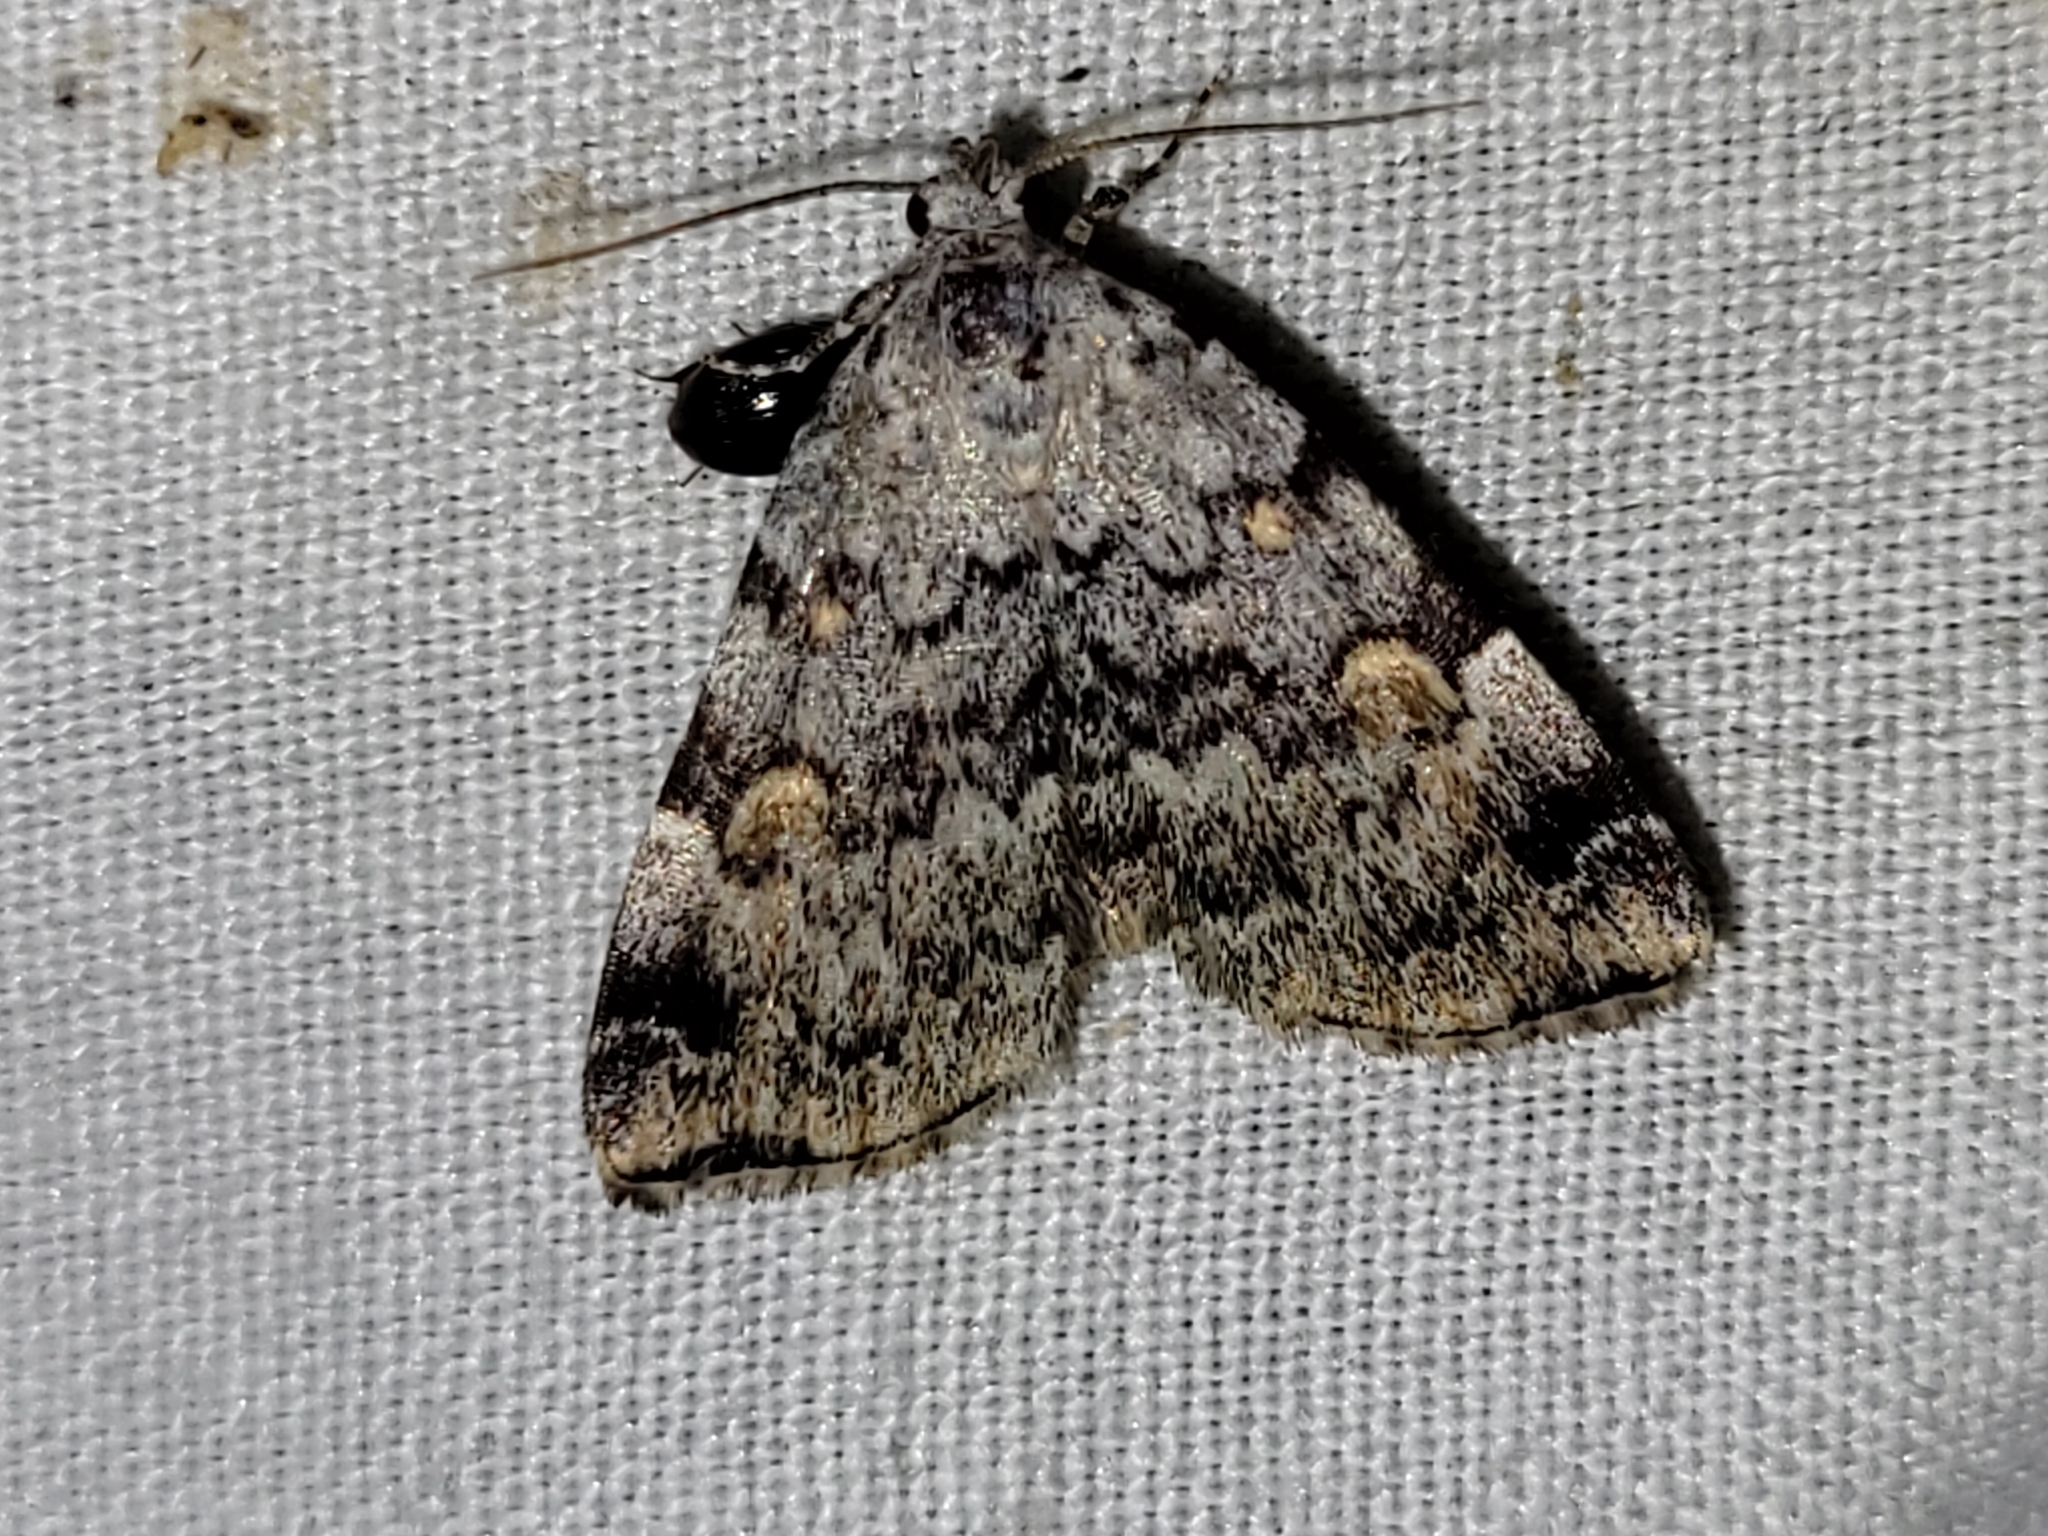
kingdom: Animalia
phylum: Arthropoda
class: Insecta
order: Lepidoptera
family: Erebidae
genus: Idia
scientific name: Idia americalis
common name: American idia moth
